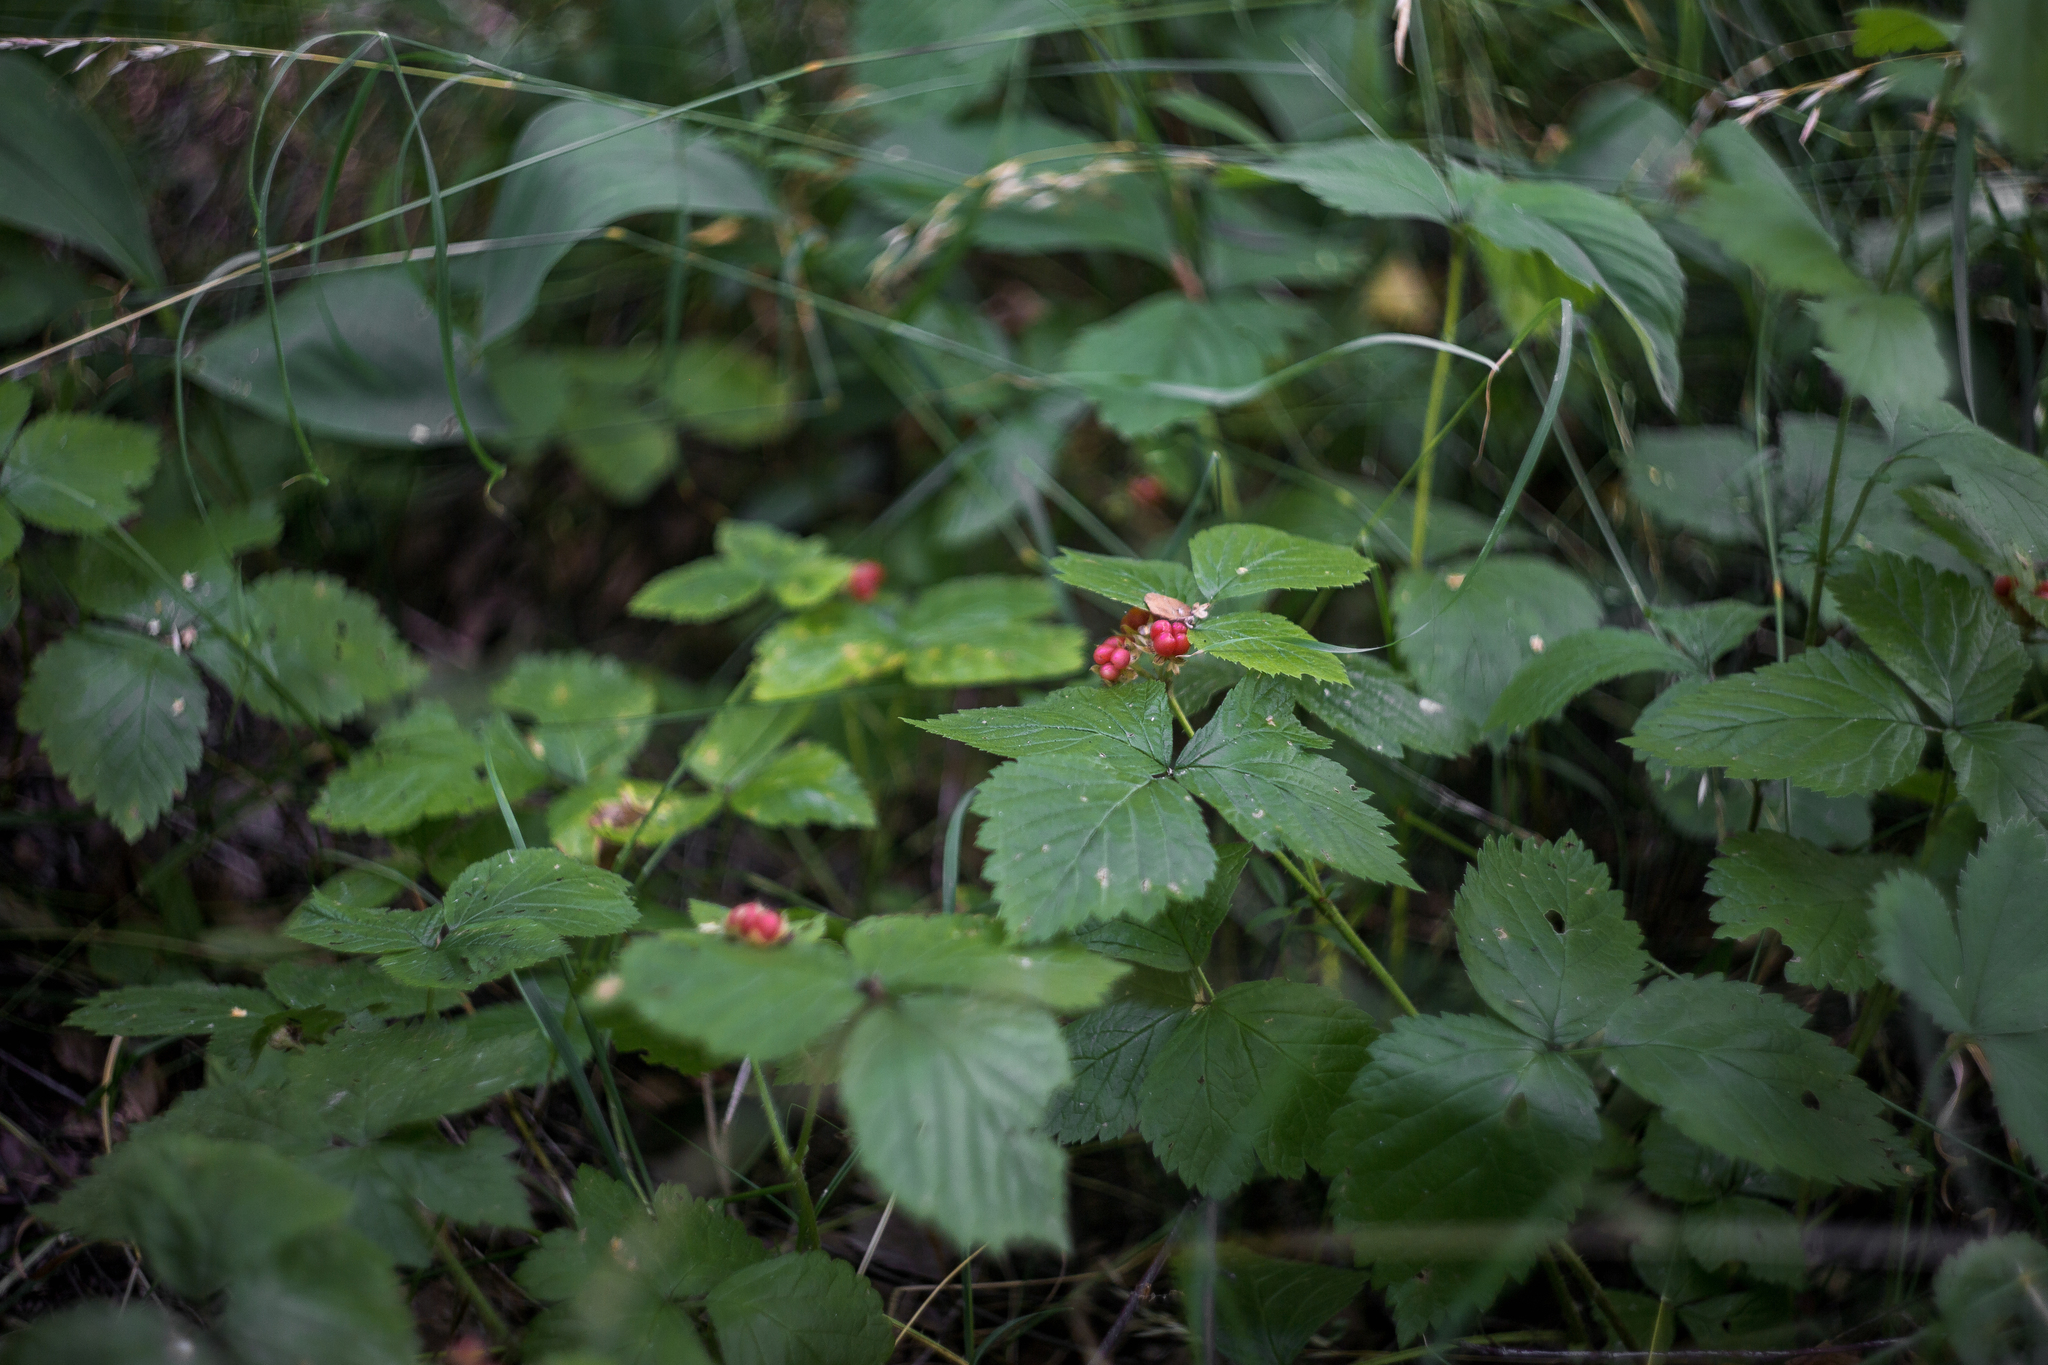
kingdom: Plantae
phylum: Tracheophyta
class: Magnoliopsida
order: Rosales
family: Rosaceae
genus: Rubus
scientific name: Rubus saxatilis
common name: Stone bramble
